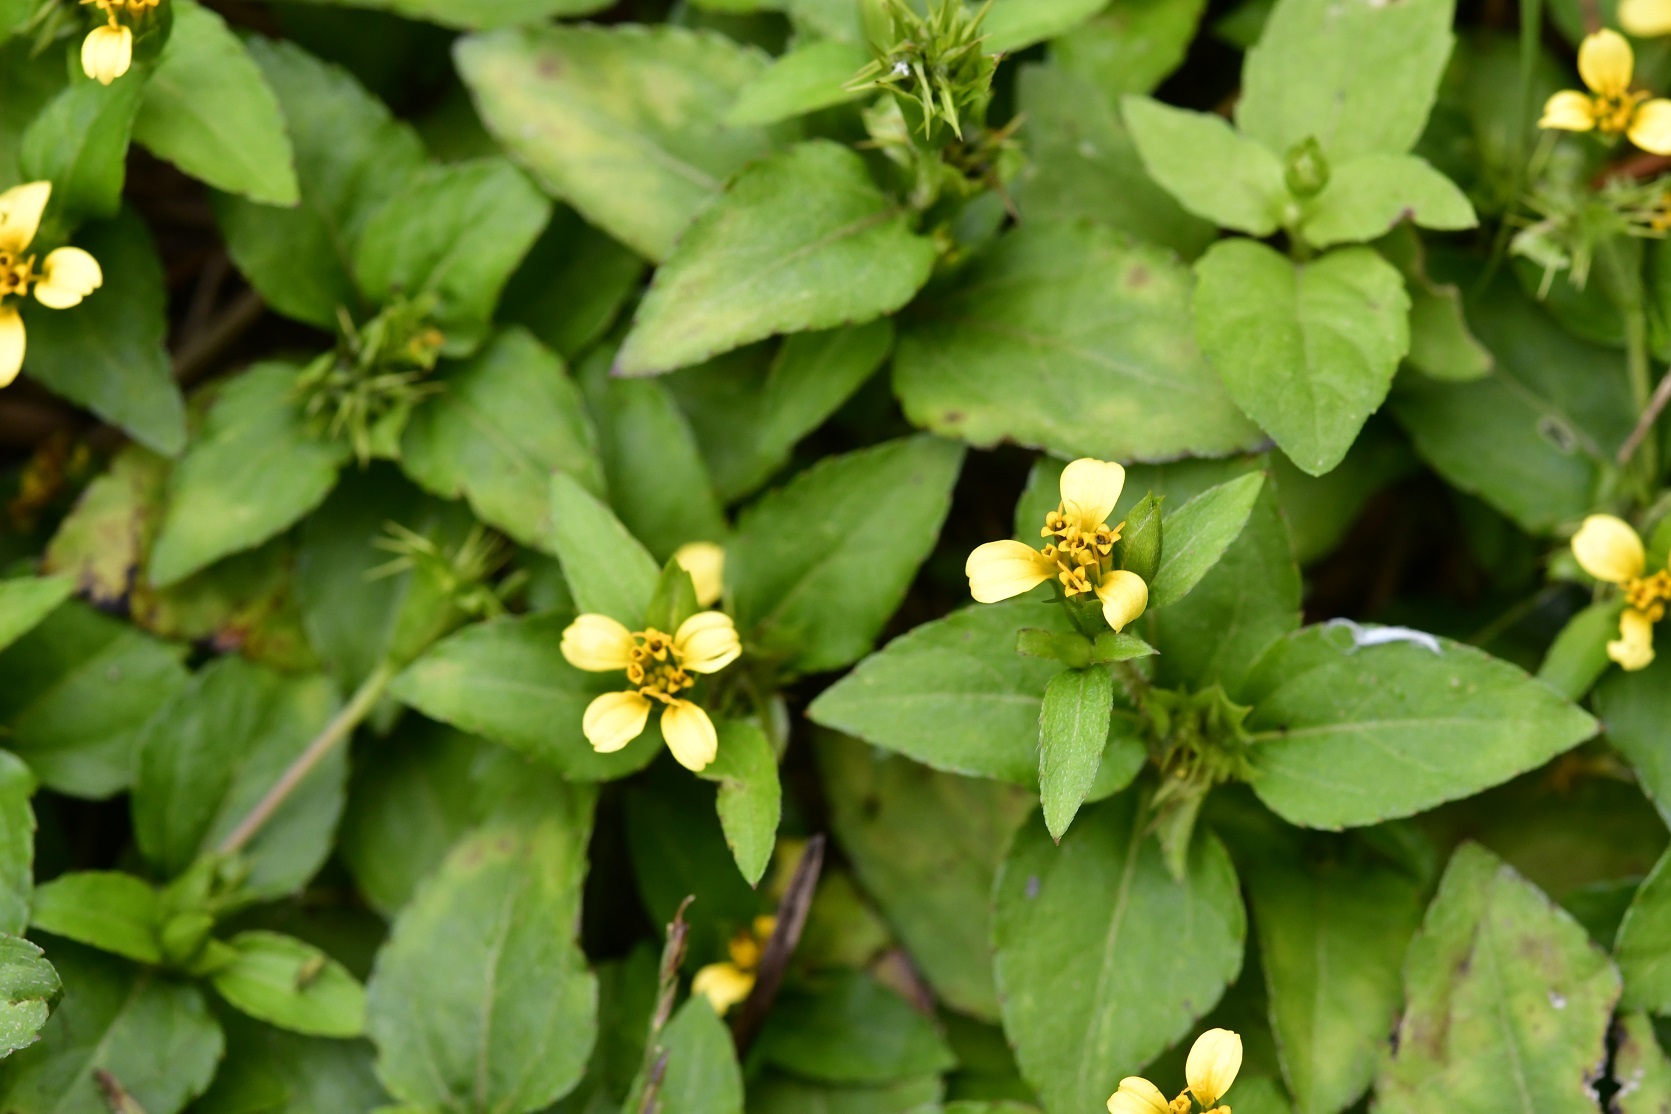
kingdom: Plantae
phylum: Tracheophyta
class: Magnoliopsida
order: Asterales
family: Asteraceae
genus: Calyptocarpus
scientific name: Calyptocarpus vialis
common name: Straggler daisy
